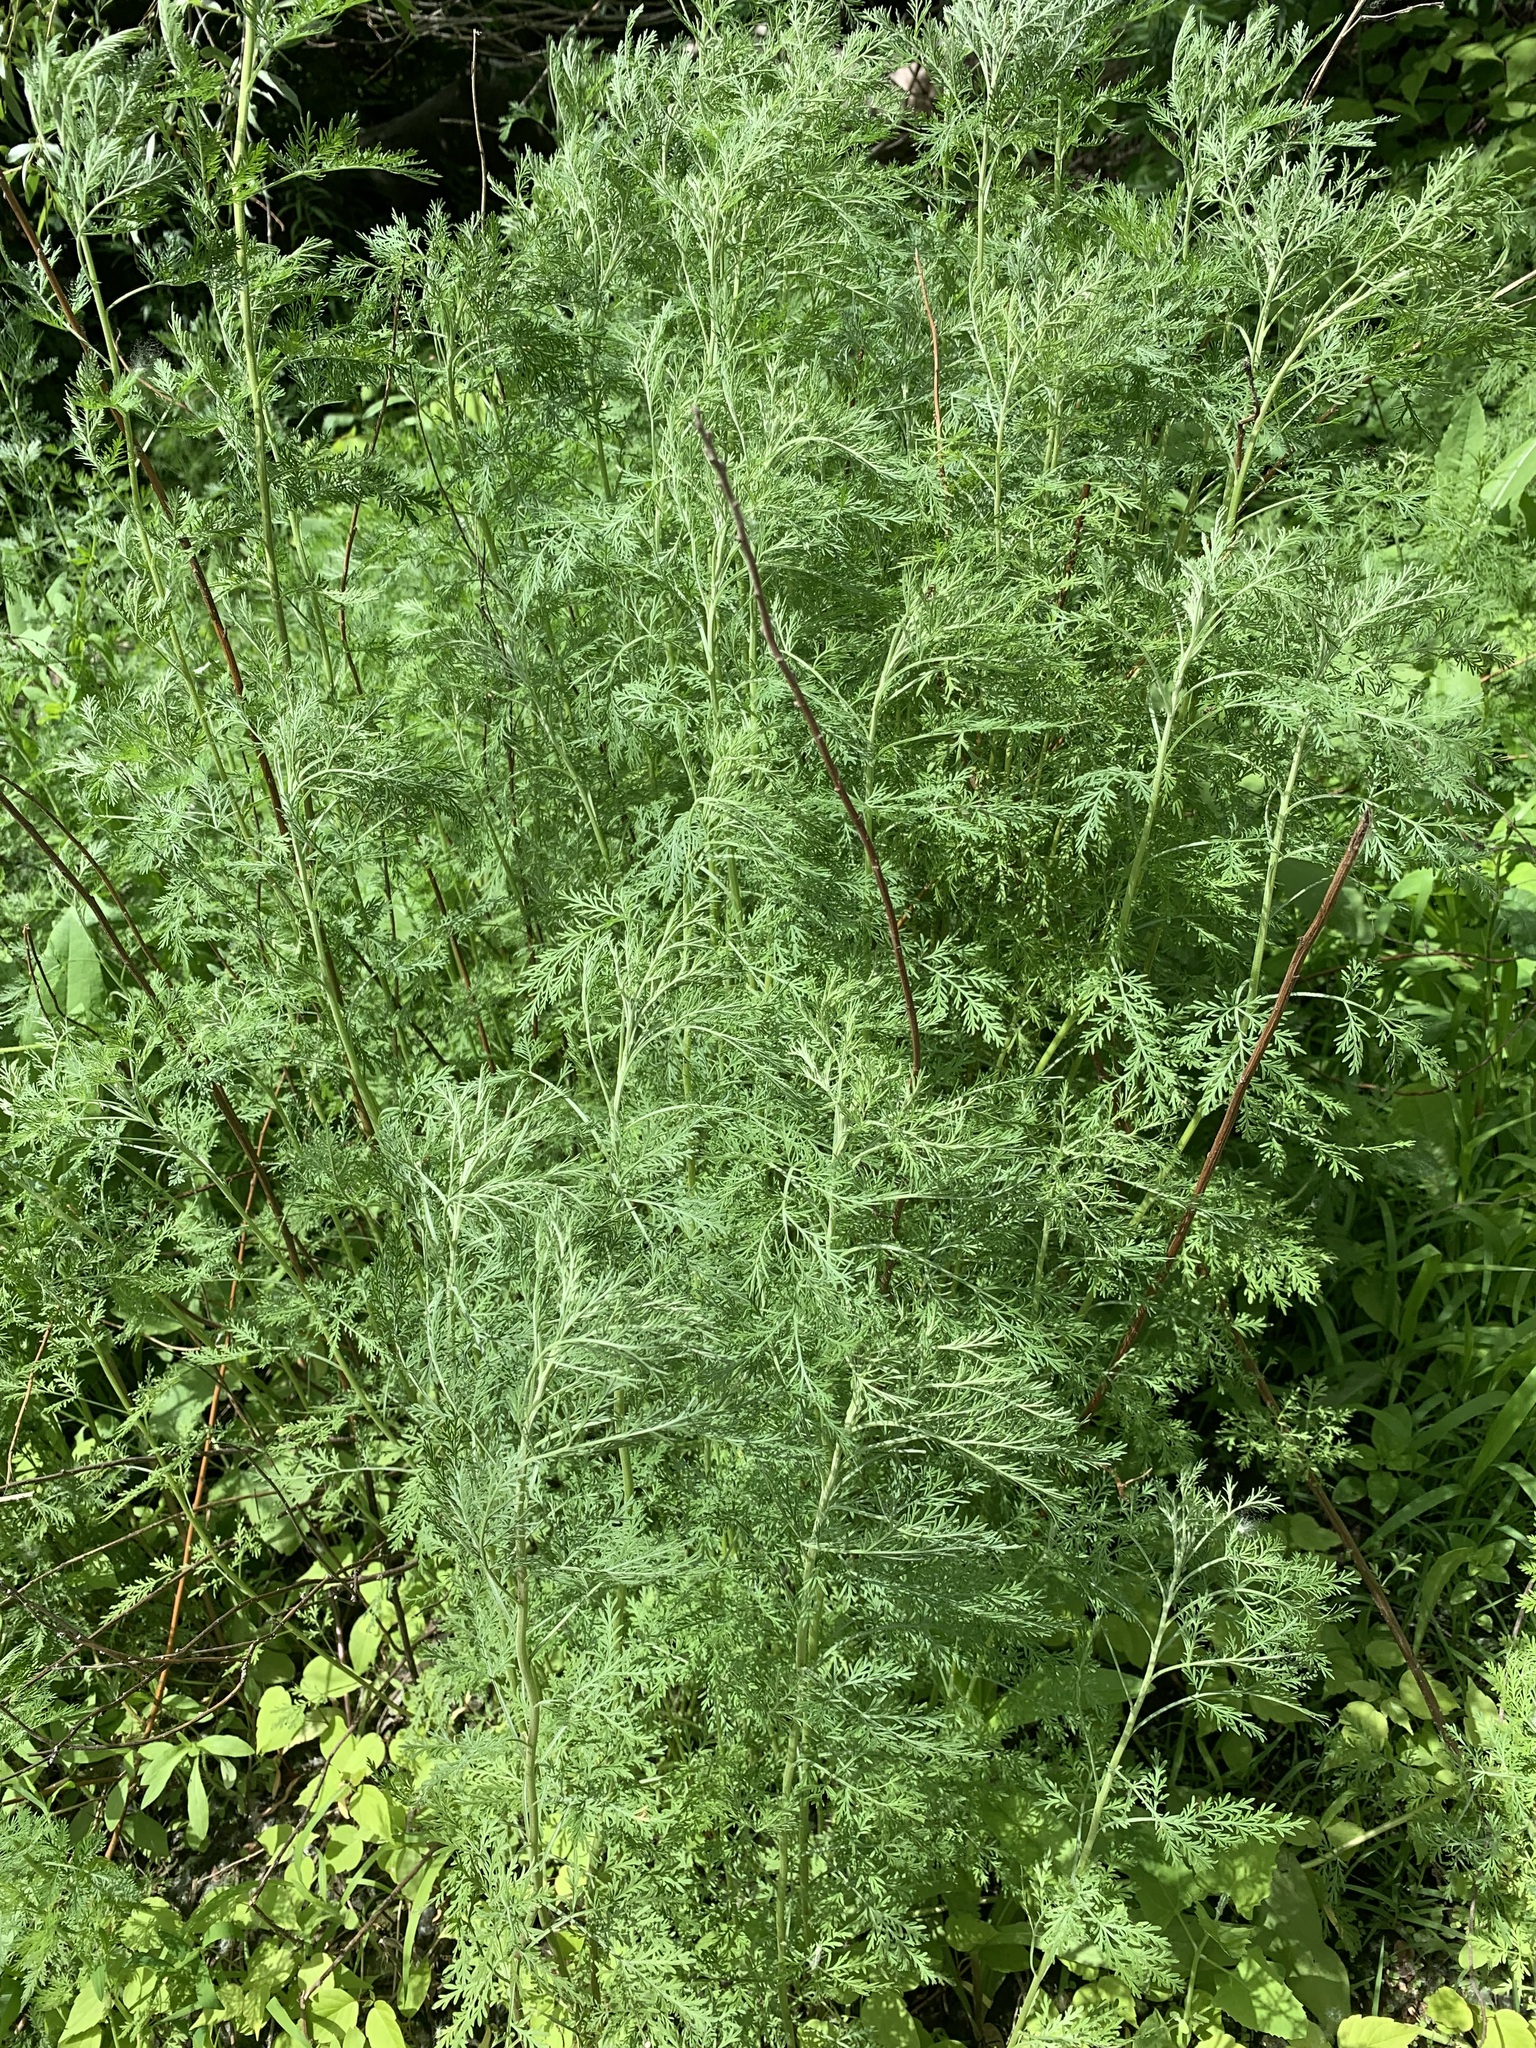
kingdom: Plantae
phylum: Tracheophyta
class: Magnoliopsida
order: Asterales
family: Asteraceae
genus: Artemisia
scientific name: Artemisia abrotanum
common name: Southernwood
